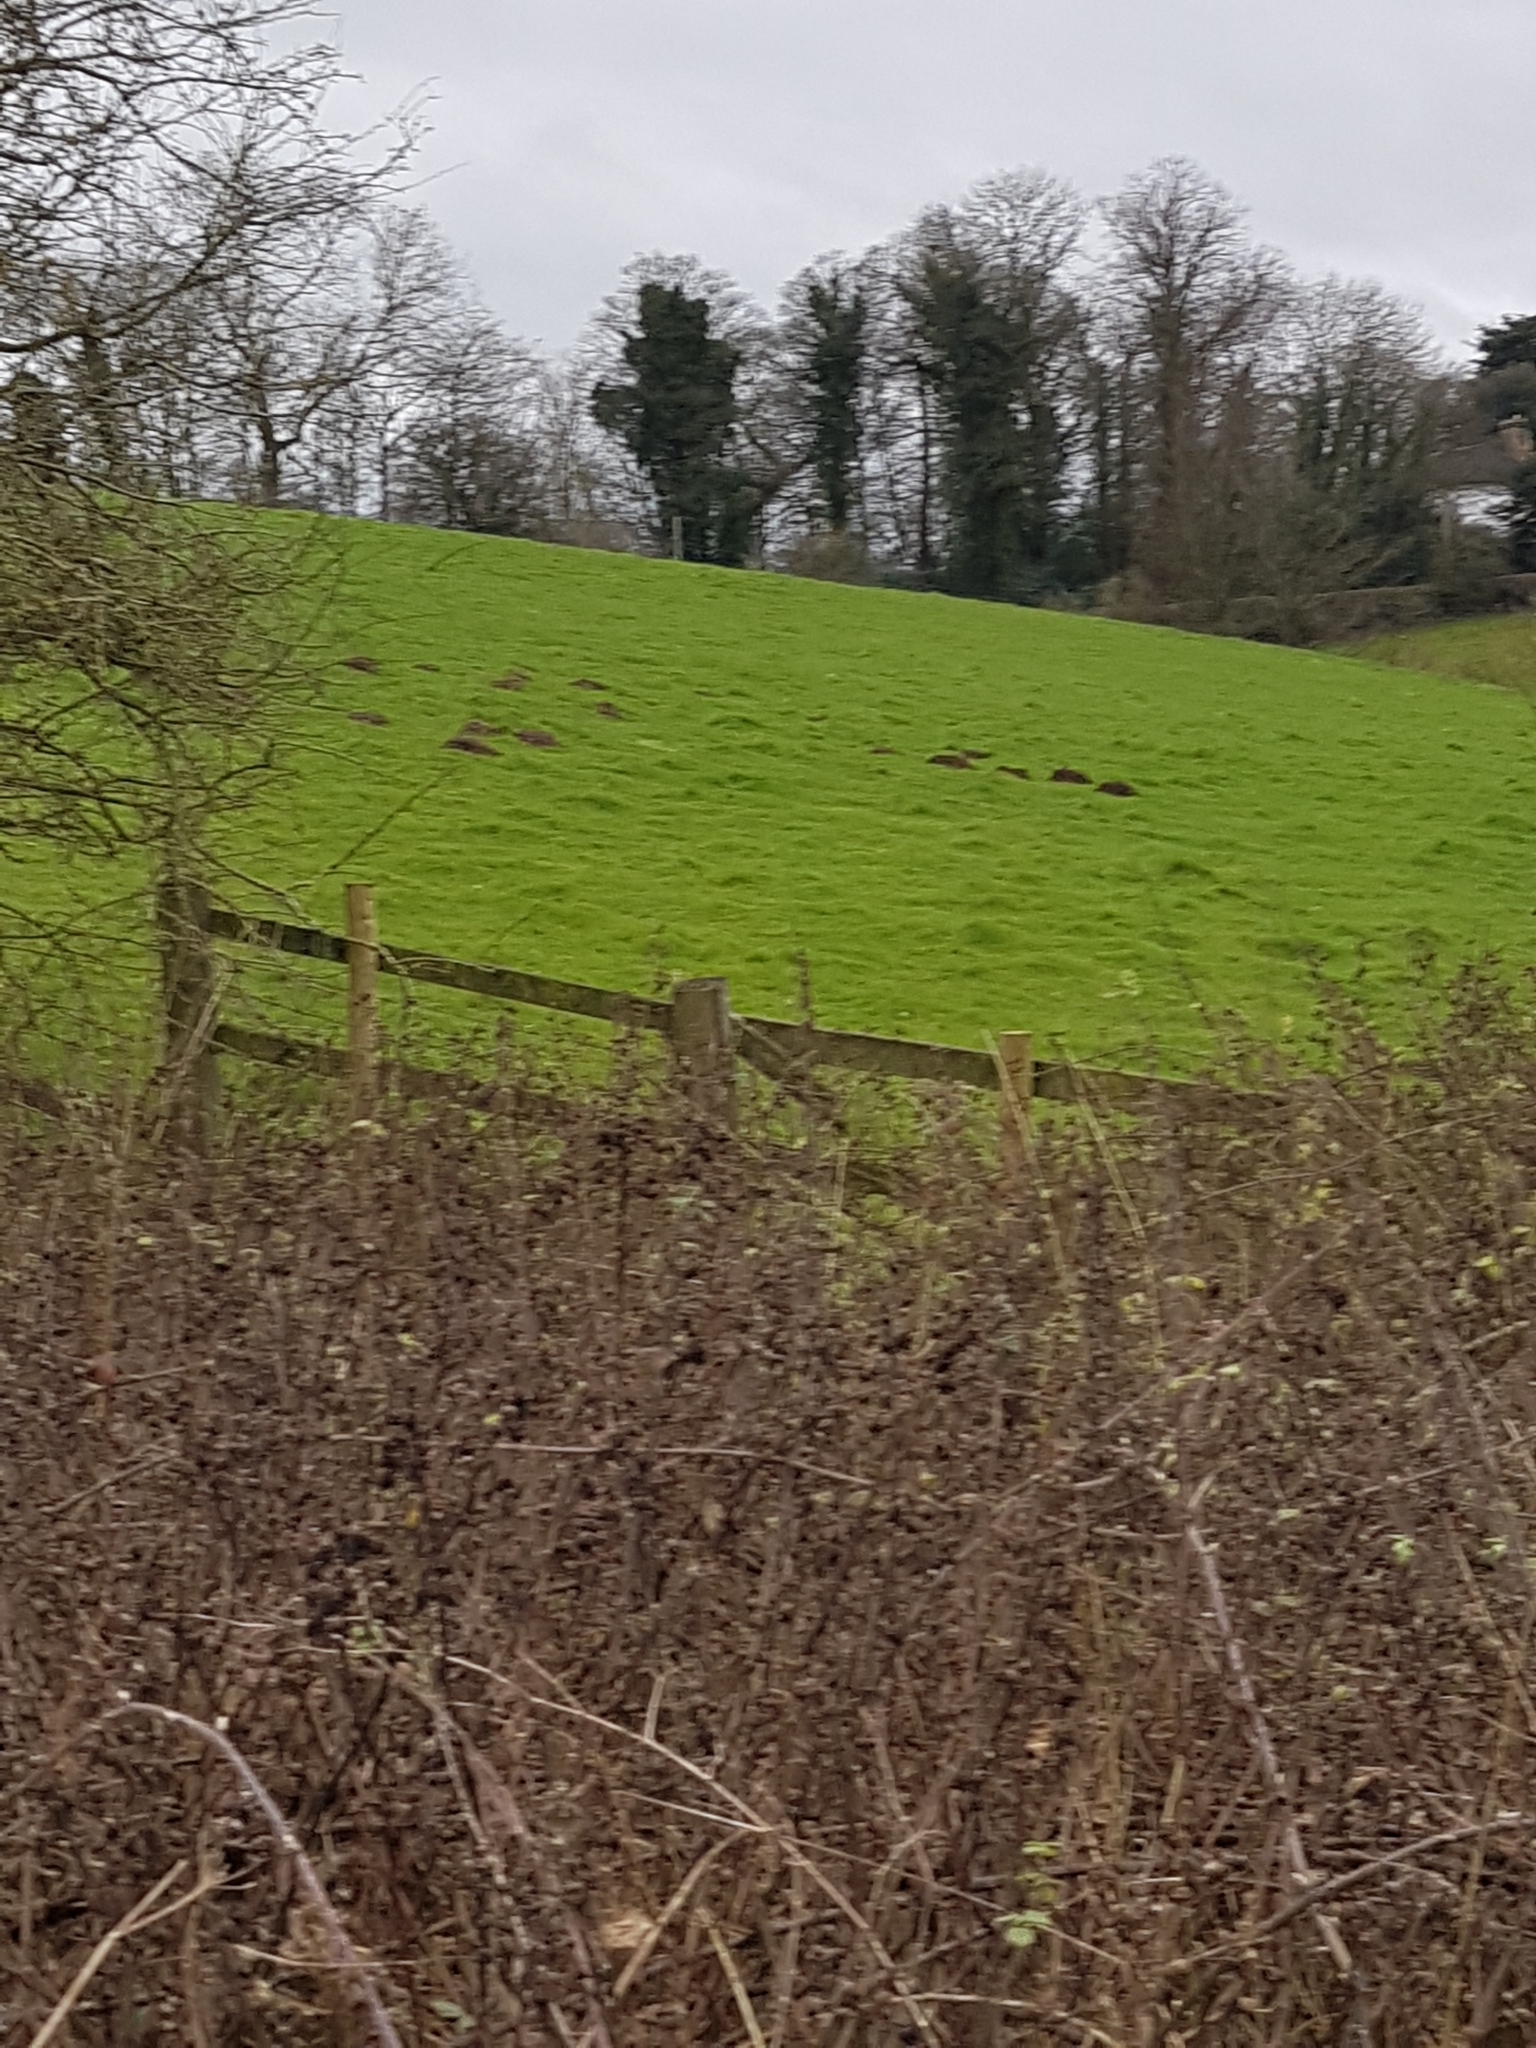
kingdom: Animalia
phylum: Chordata
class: Mammalia
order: Soricomorpha
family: Talpidae
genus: Talpa
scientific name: Talpa europaea
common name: European mole
